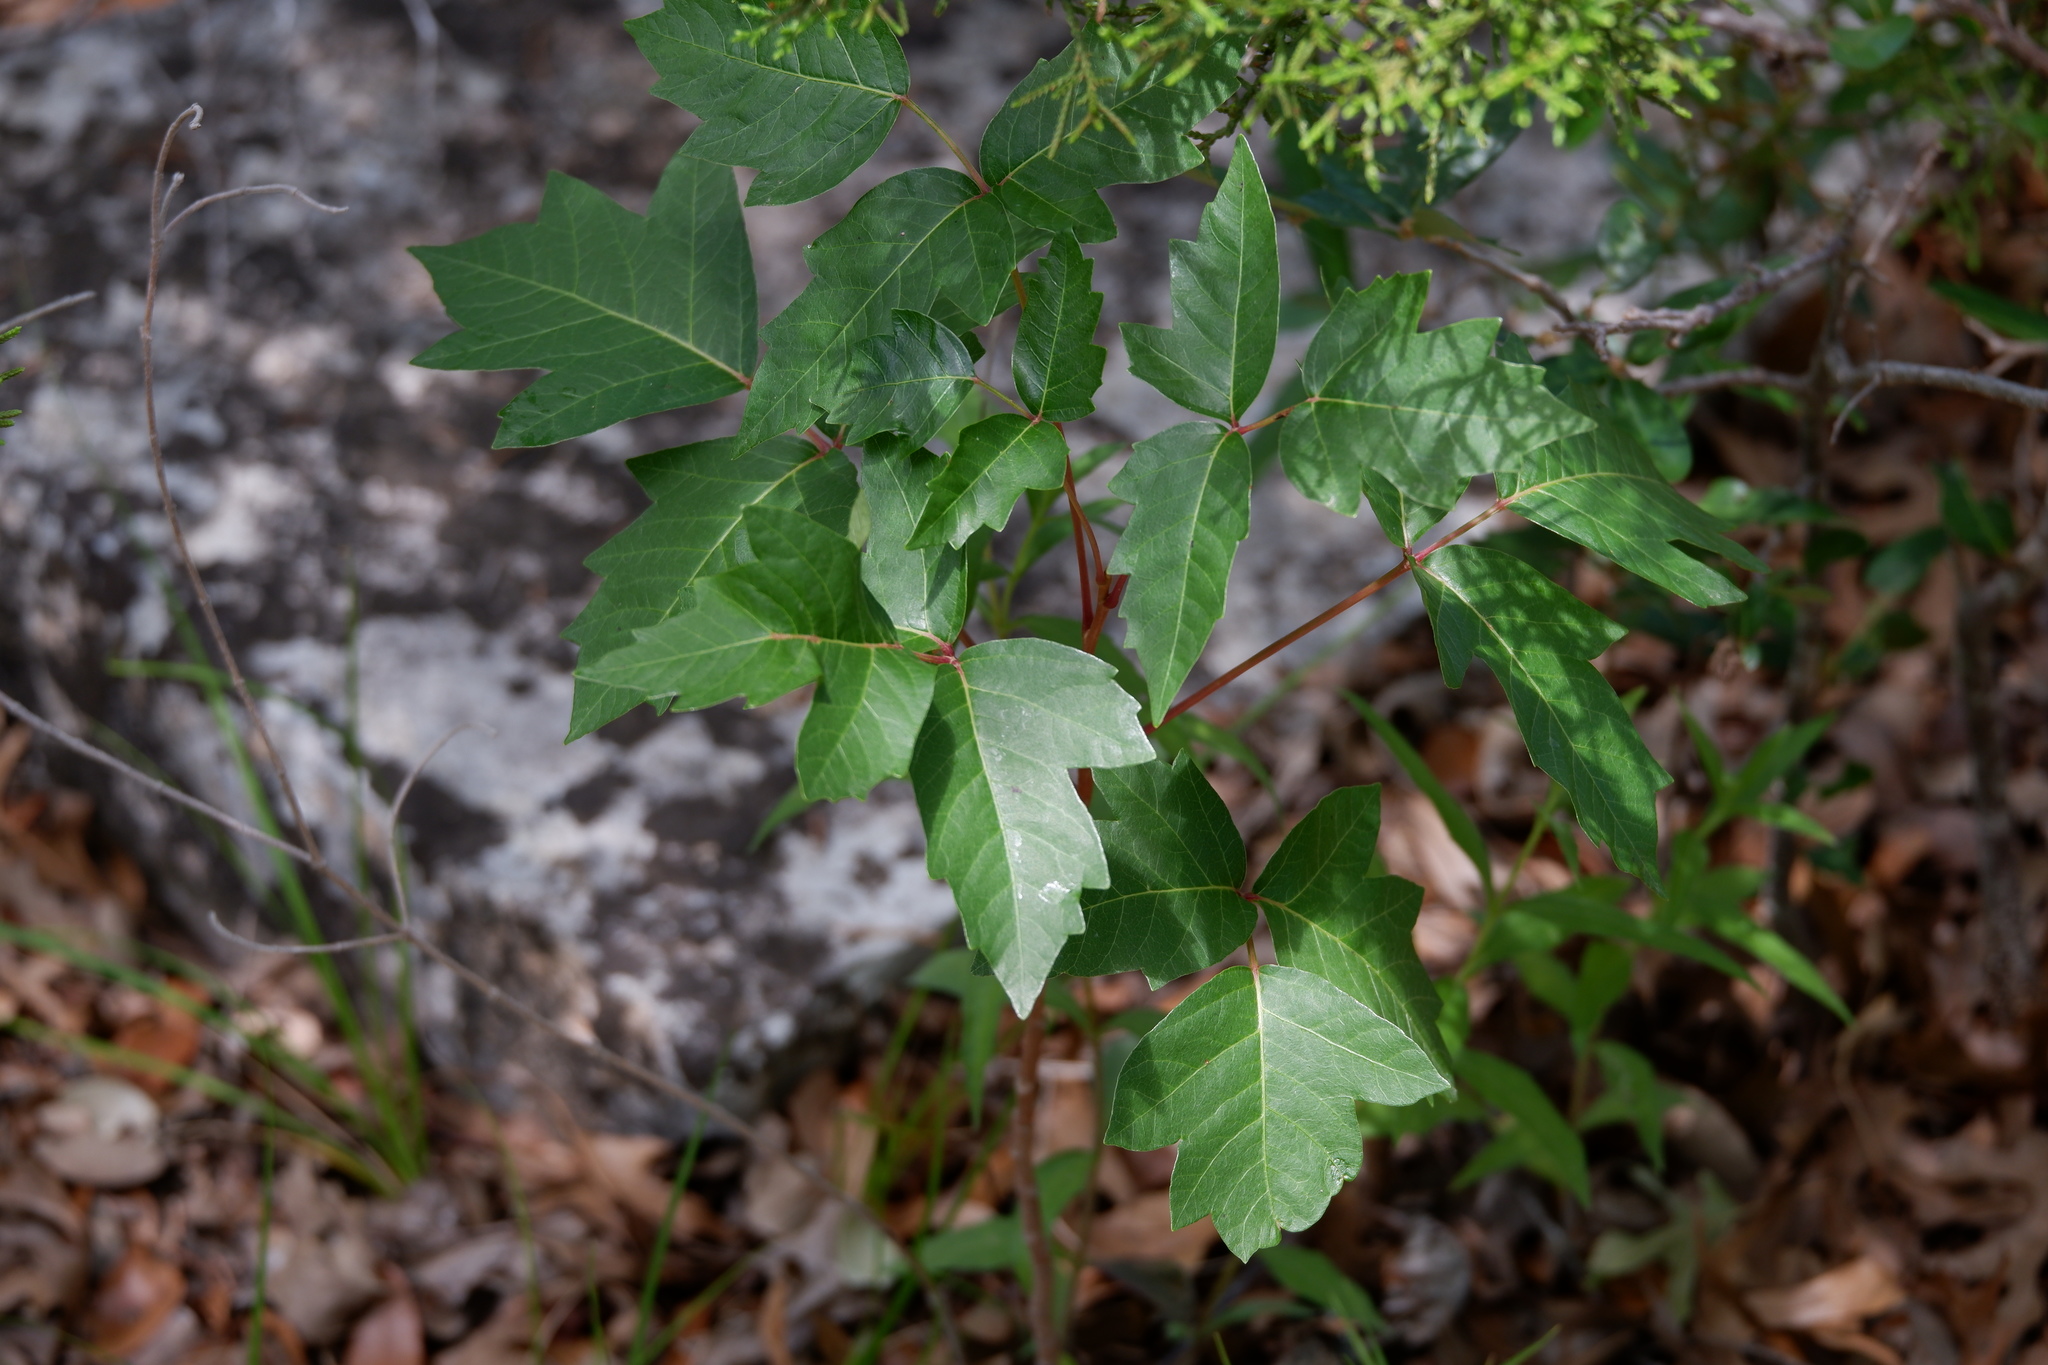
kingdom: Plantae
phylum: Tracheophyta
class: Magnoliopsida
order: Sapindales
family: Anacardiaceae
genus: Toxicodendron
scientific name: Toxicodendron radicans
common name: Poison ivy
